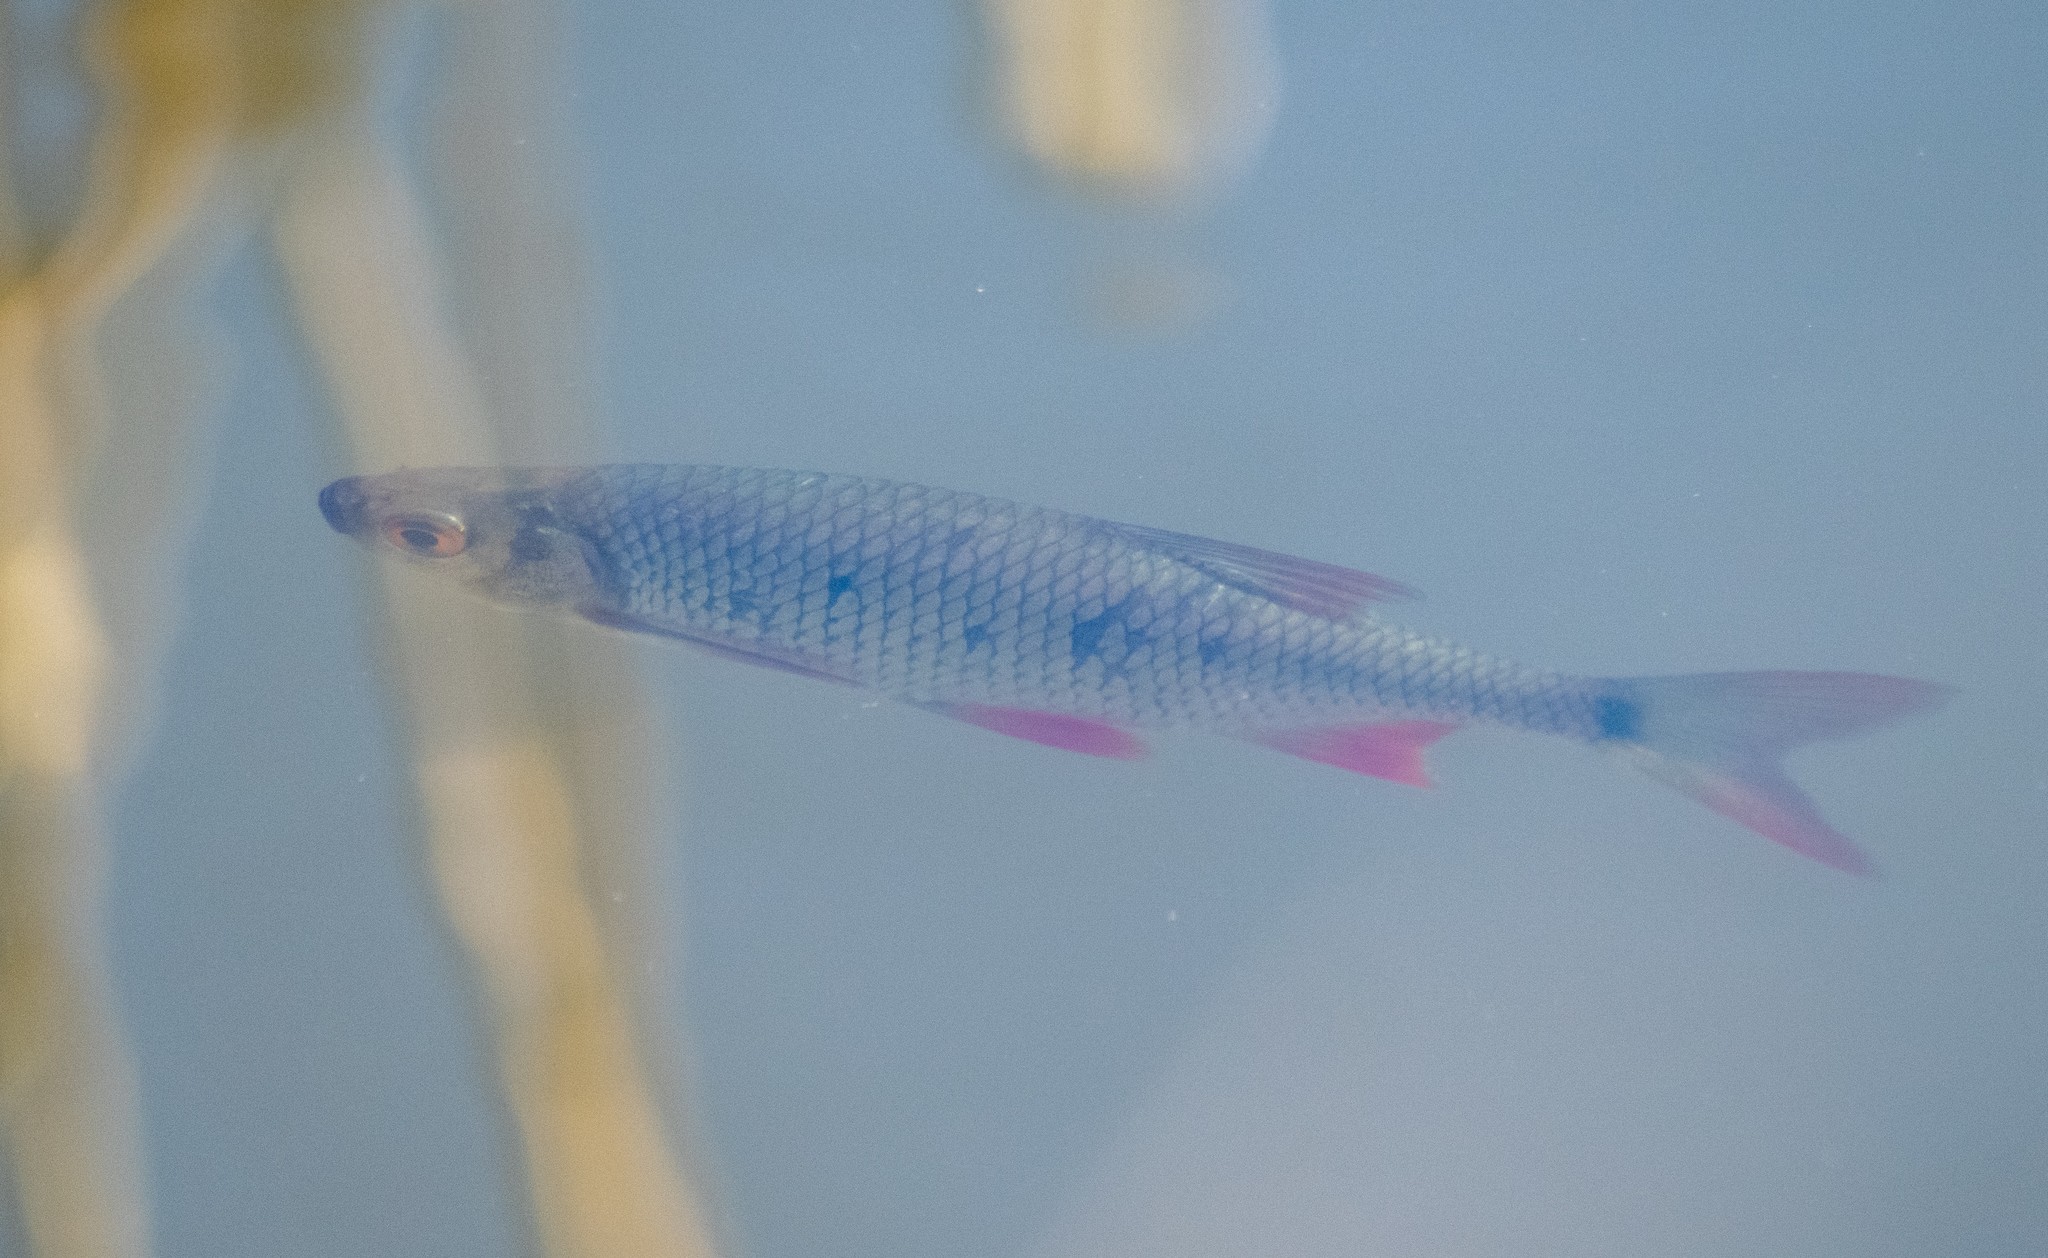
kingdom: Animalia
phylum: Chordata
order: Cypriniformes
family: Cyprinidae
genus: Scardinius
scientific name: Scardinius erythrophthalmus
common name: Rudd
